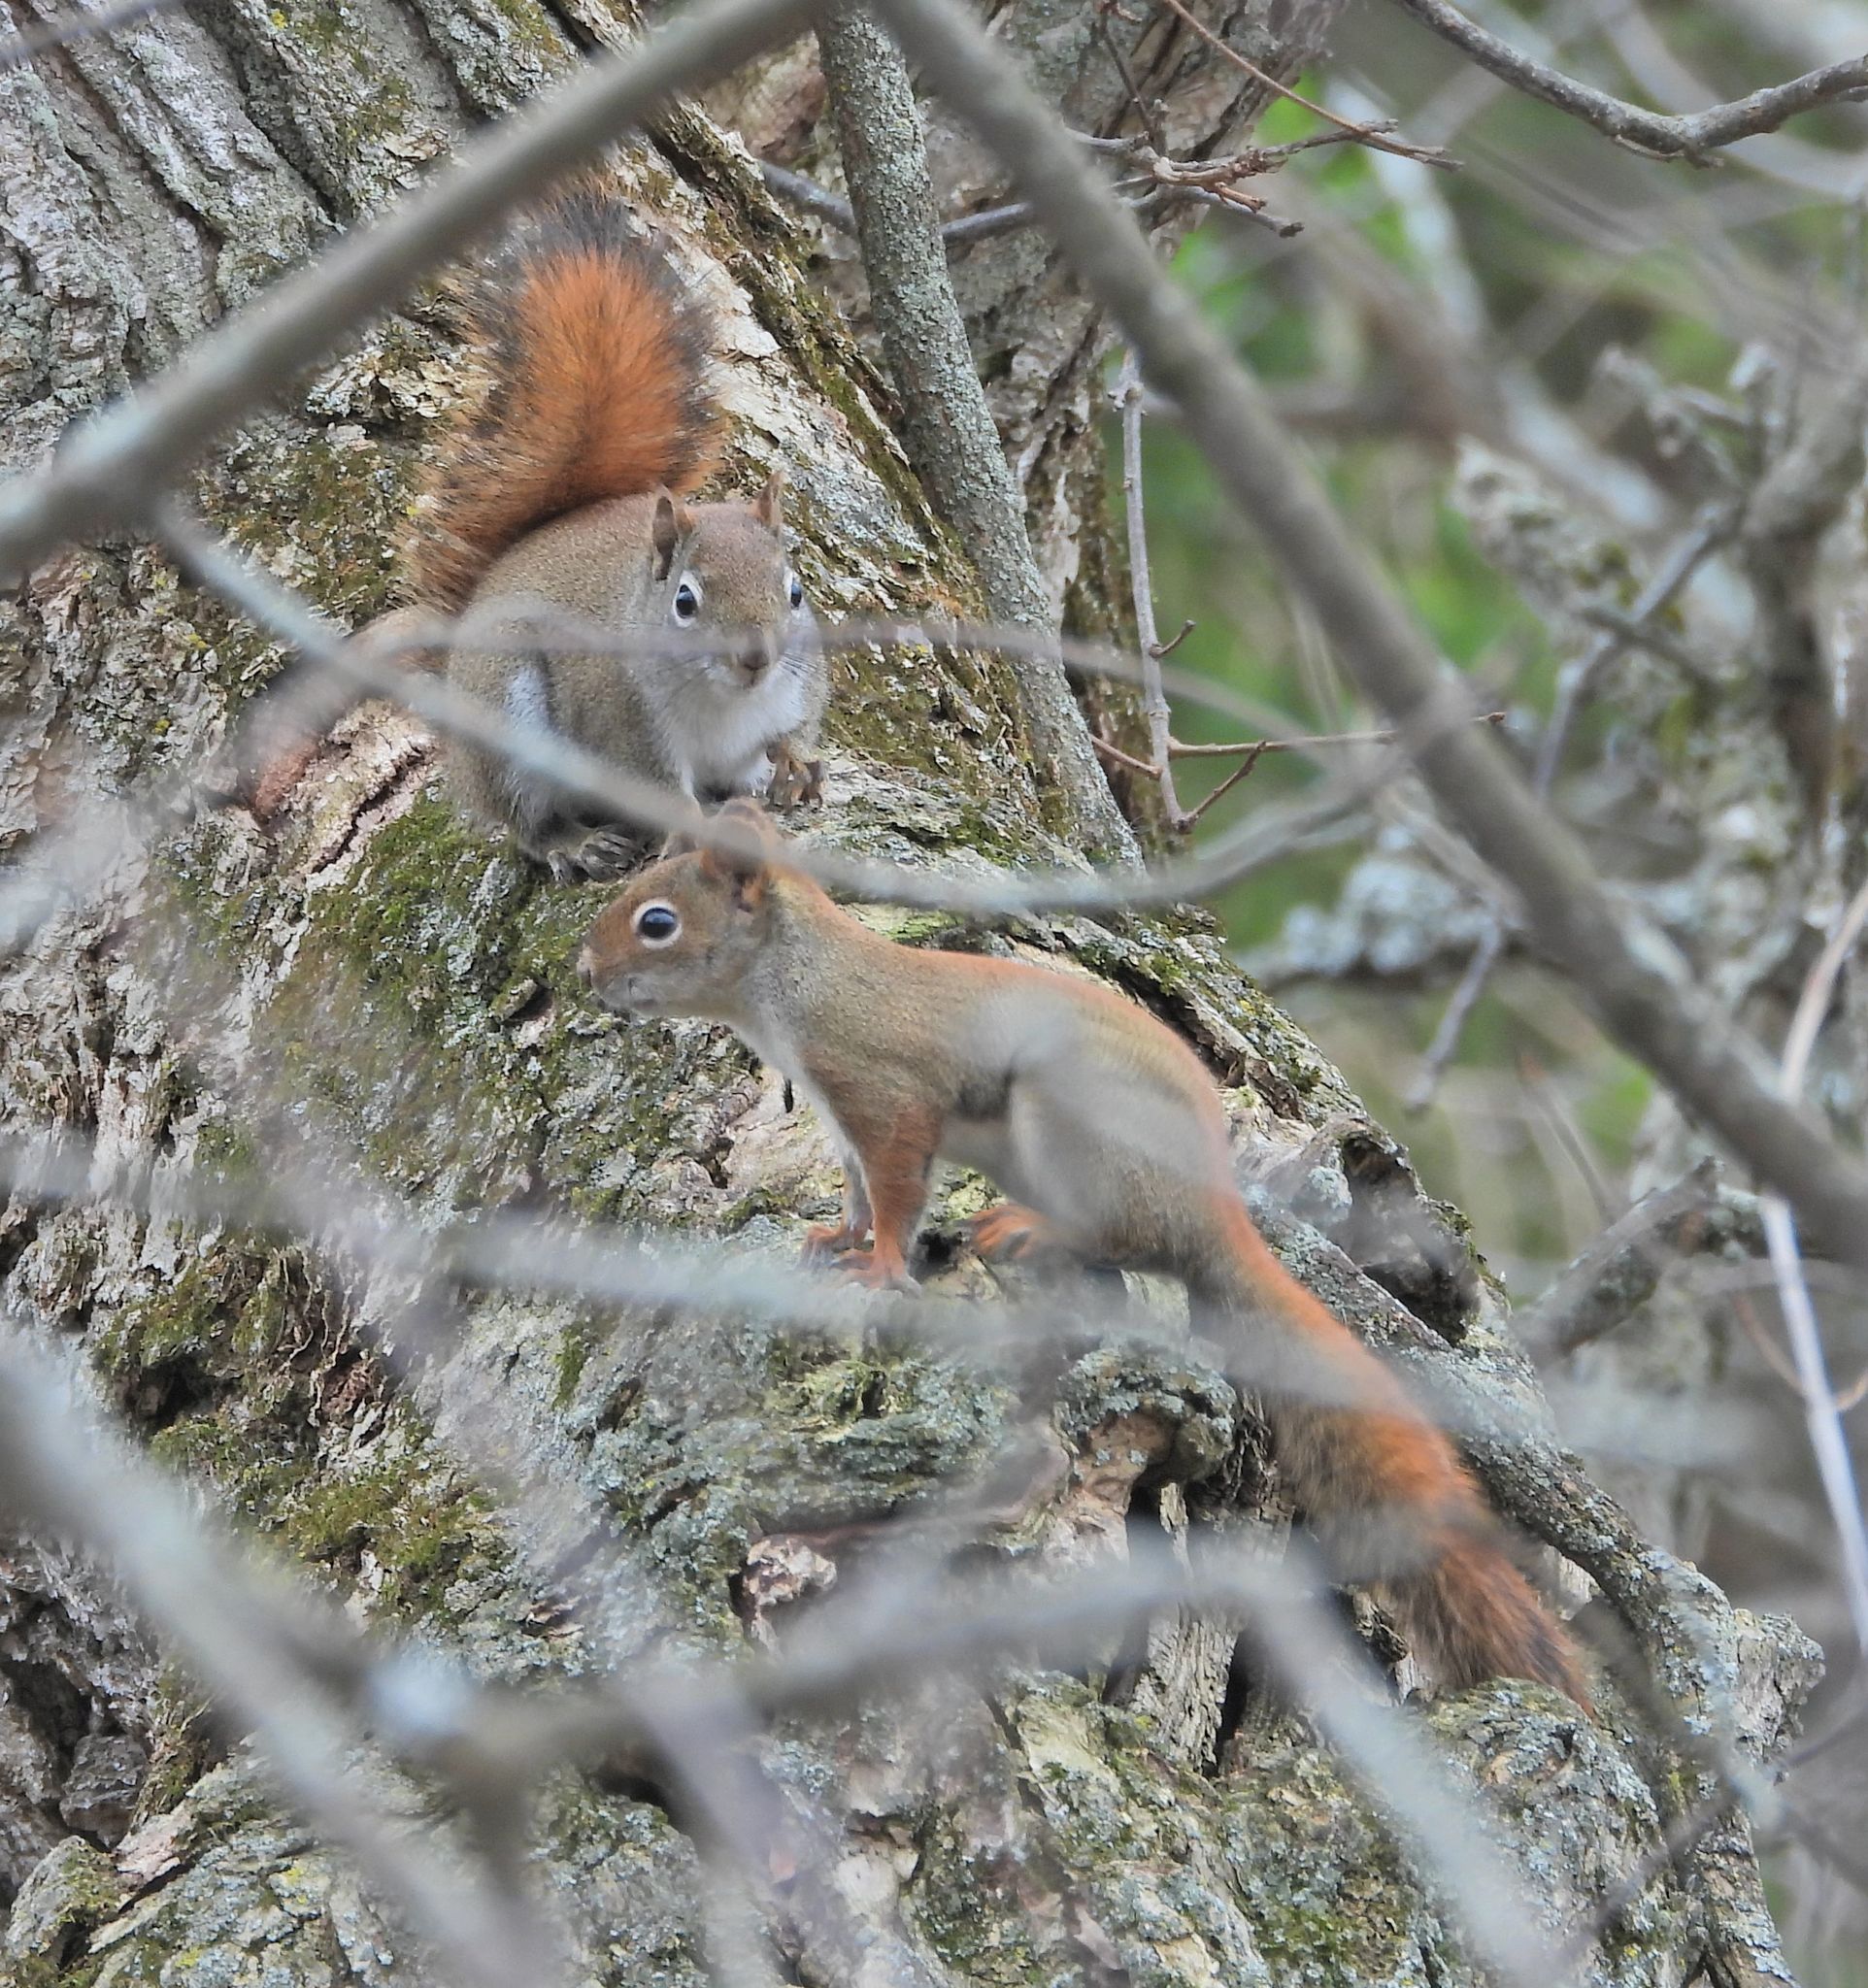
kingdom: Animalia
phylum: Chordata
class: Mammalia
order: Rodentia
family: Sciuridae
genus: Tamiasciurus
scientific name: Tamiasciurus hudsonicus
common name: Red squirrel
